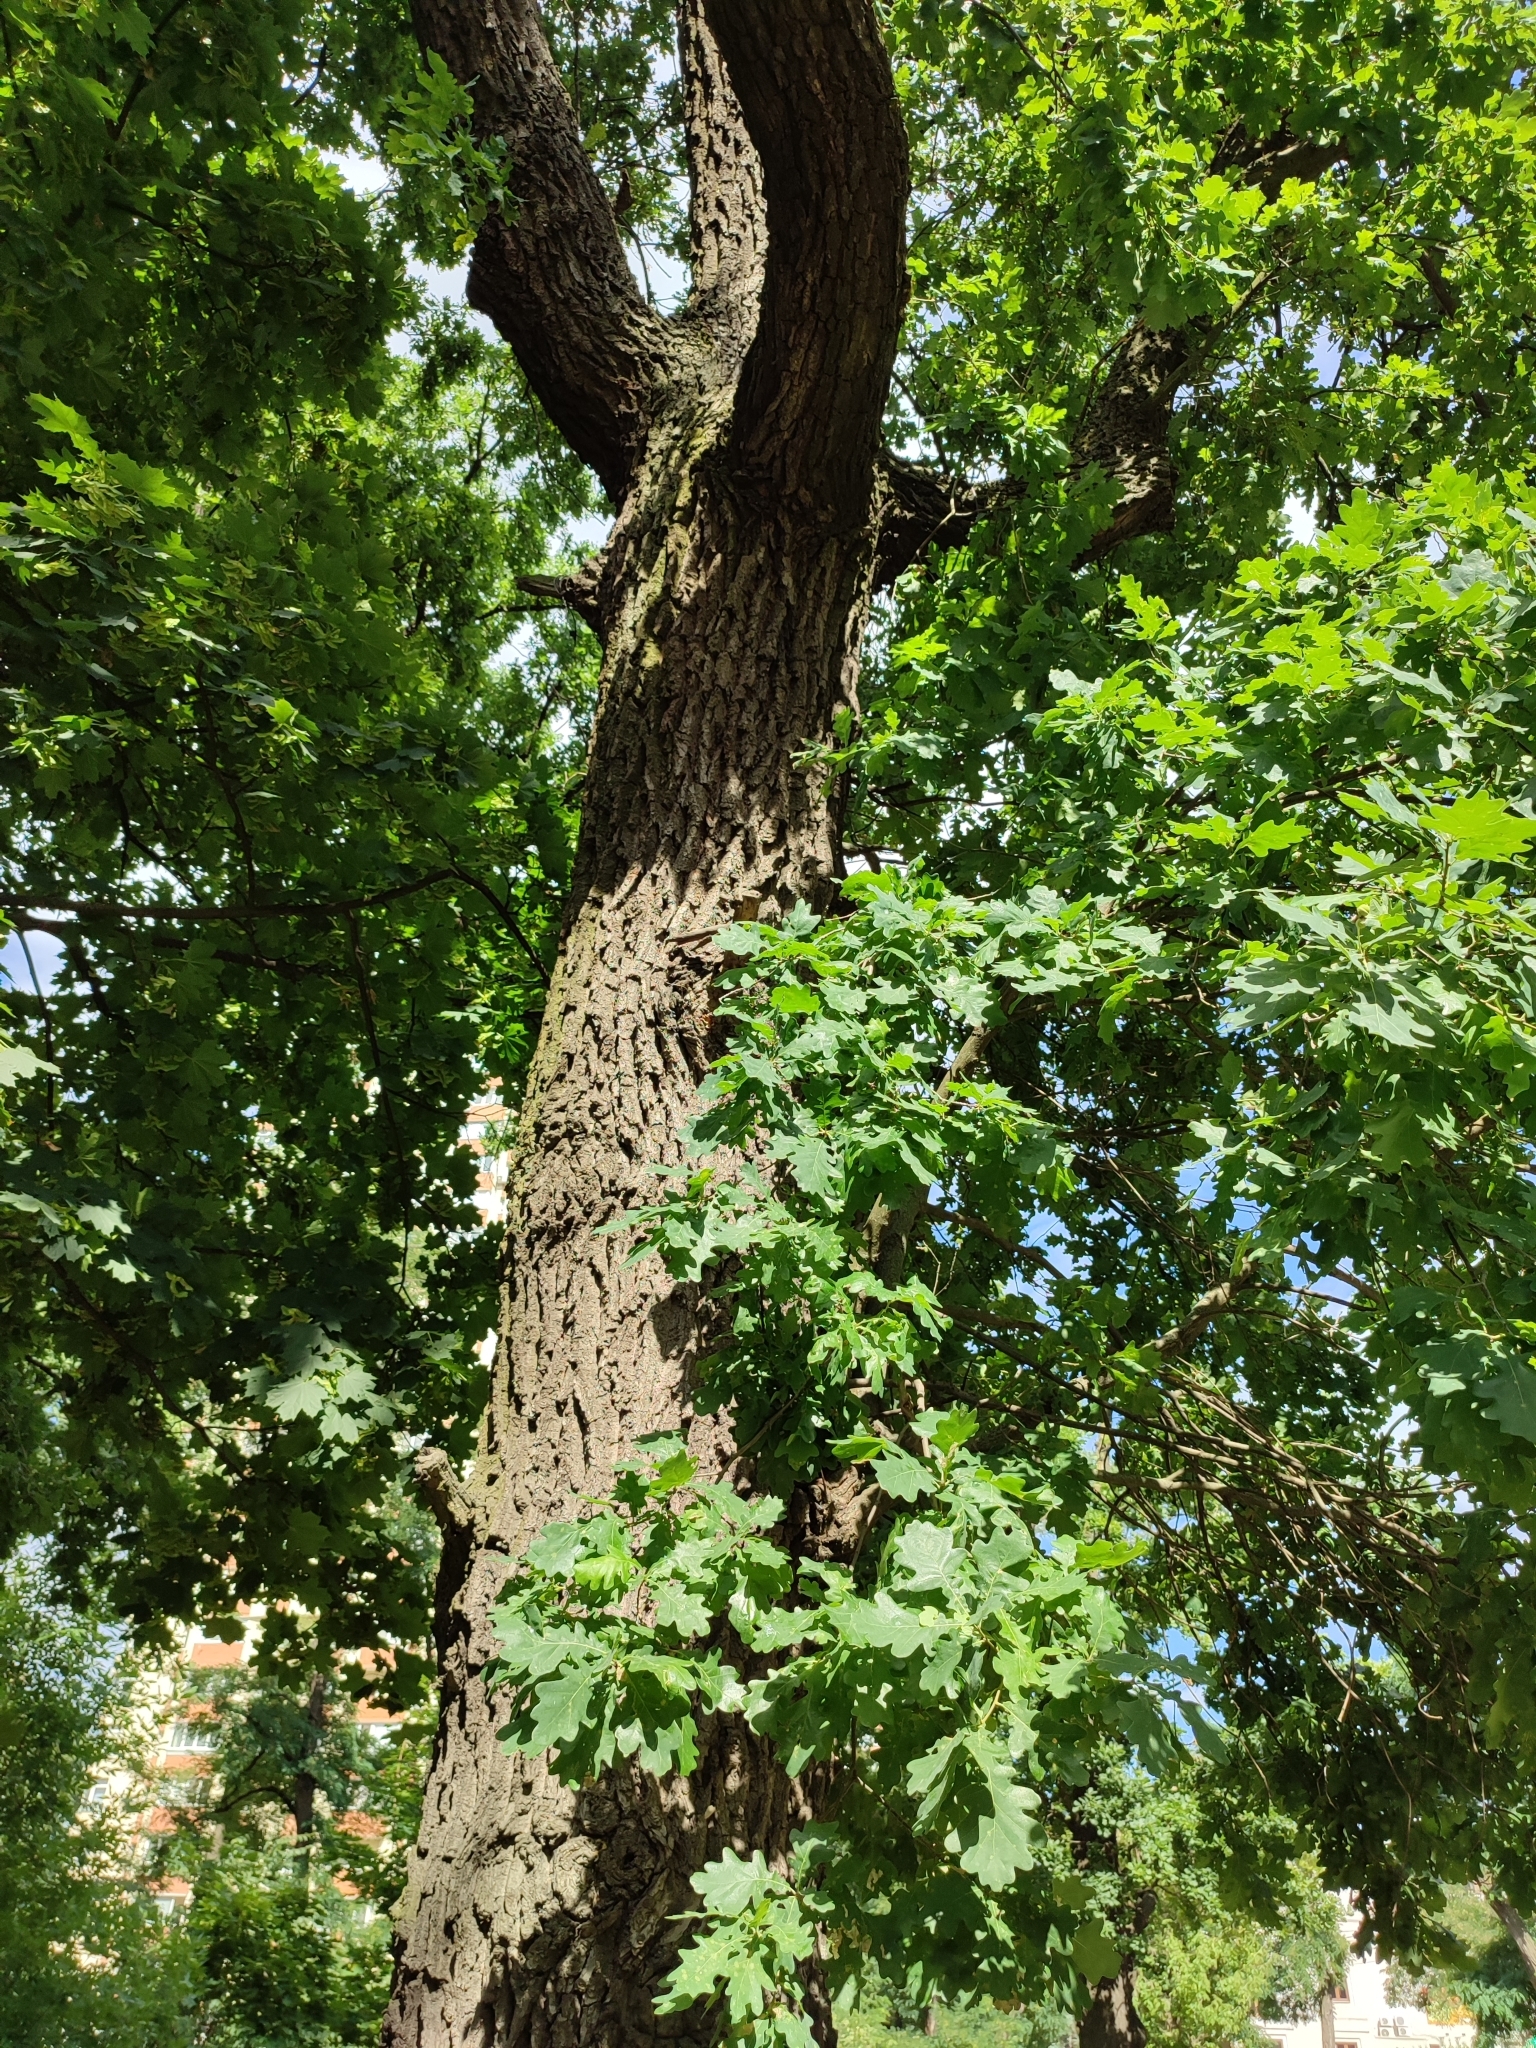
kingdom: Plantae
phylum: Tracheophyta
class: Magnoliopsida
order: Fagales
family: Fagaceae
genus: Quercus
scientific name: Quercus robur
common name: Pedunculate oak
